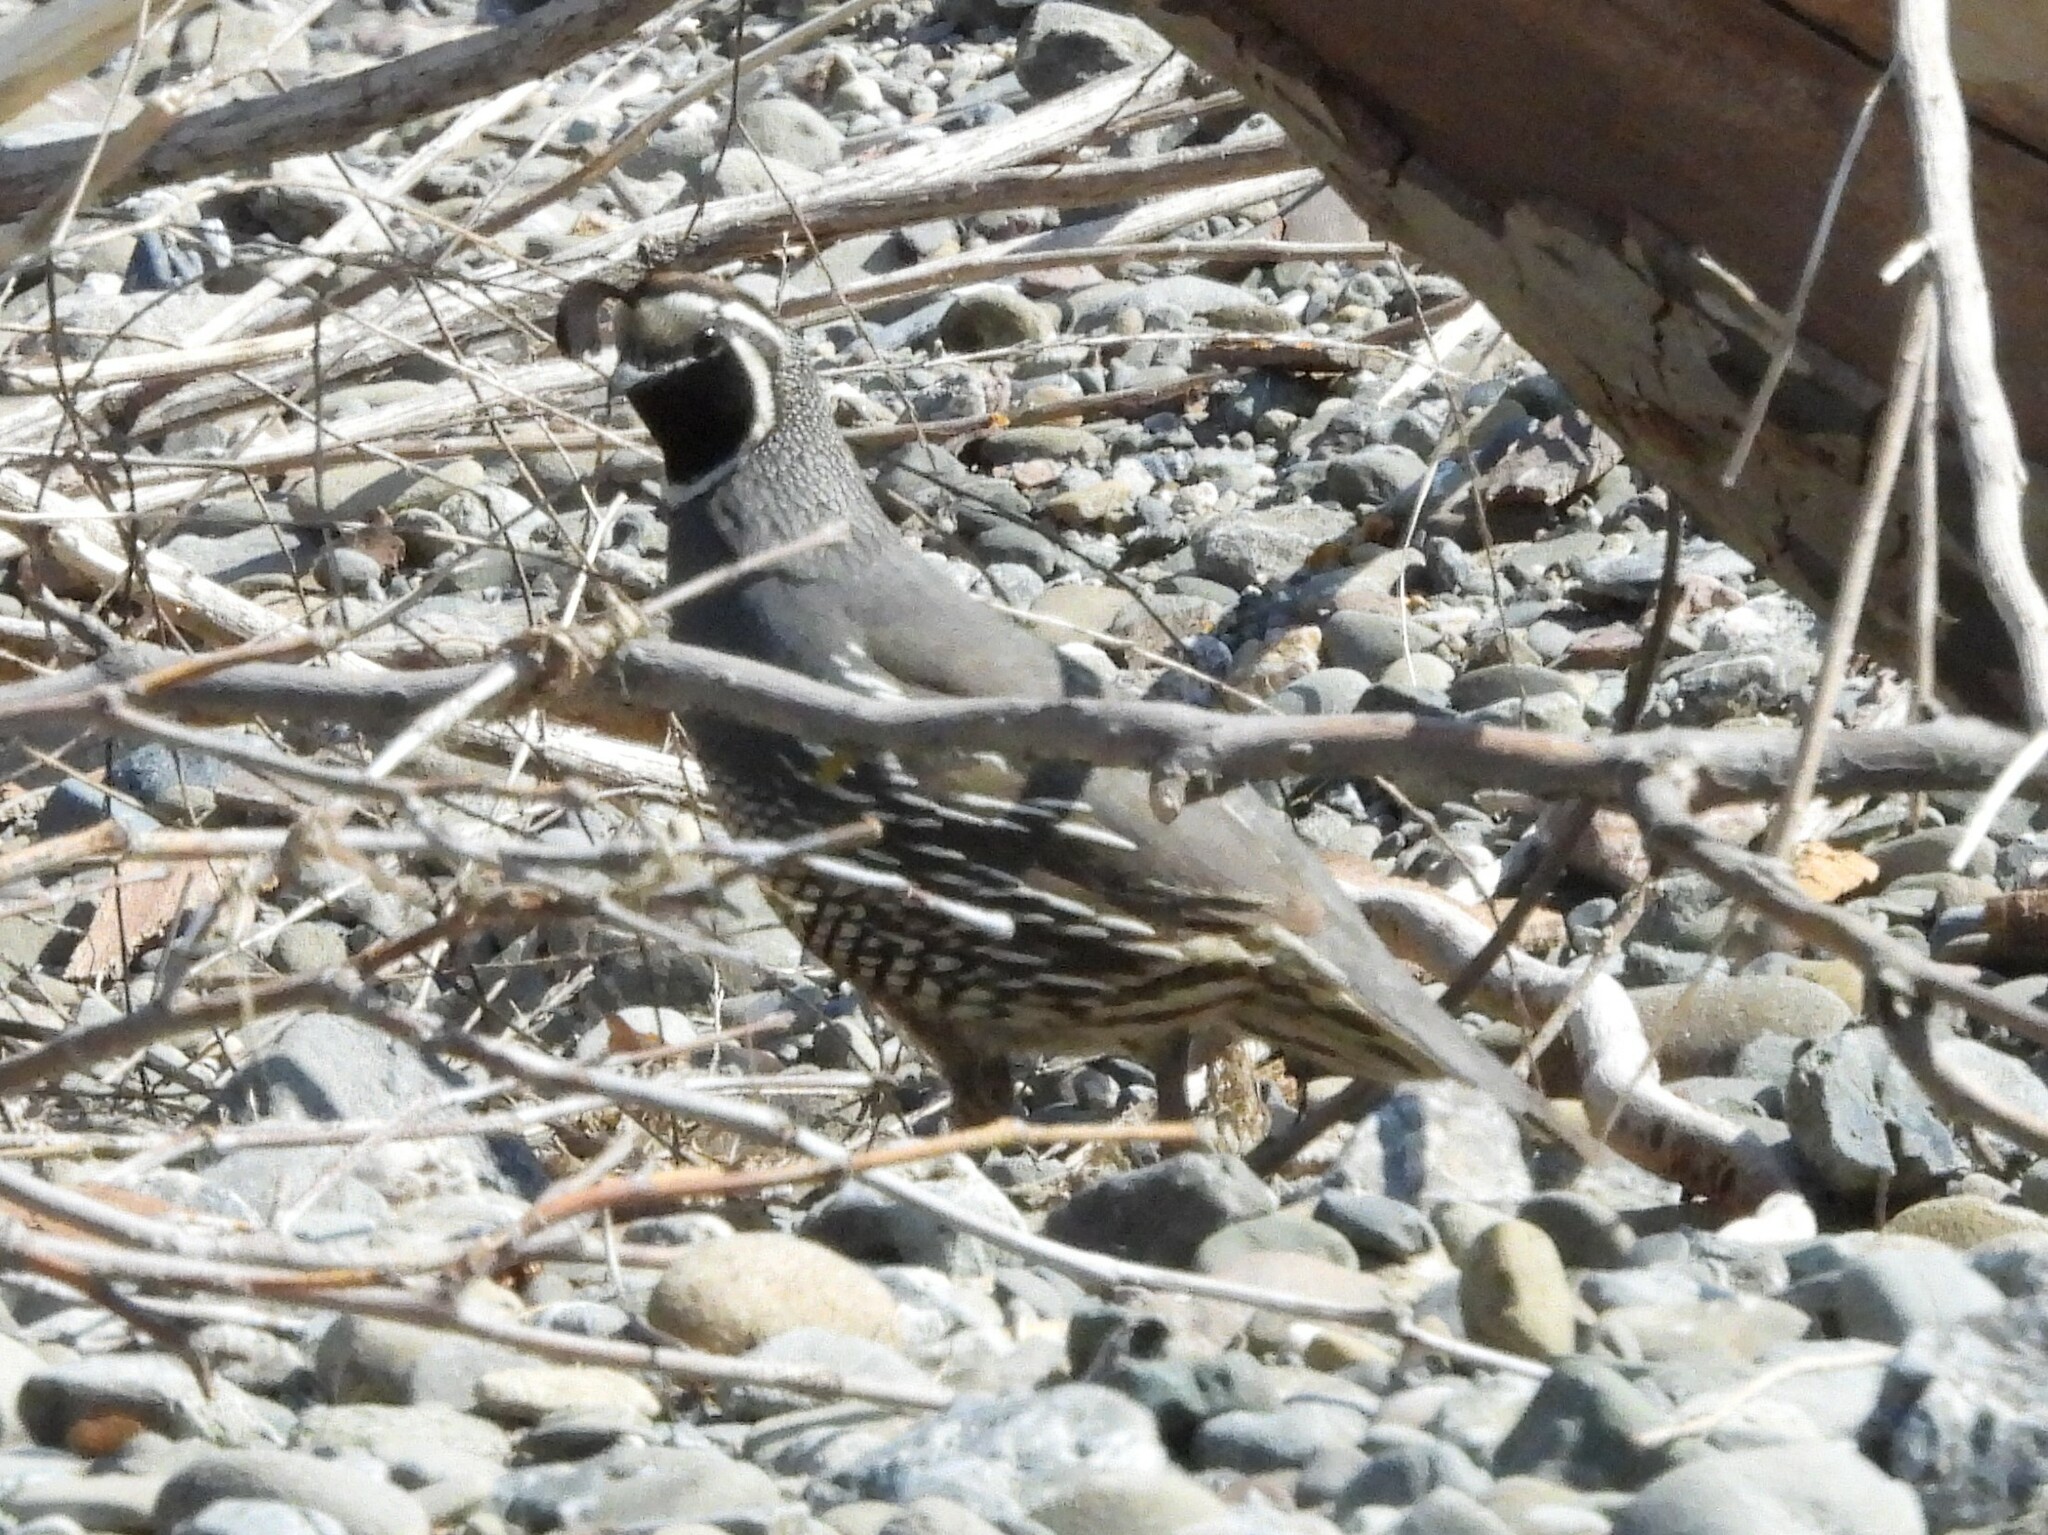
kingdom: Animalia
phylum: Chordata
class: Aves
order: Galliformes
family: Odontophoridae
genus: Callipepla
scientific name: Callipepla californica
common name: California quail
